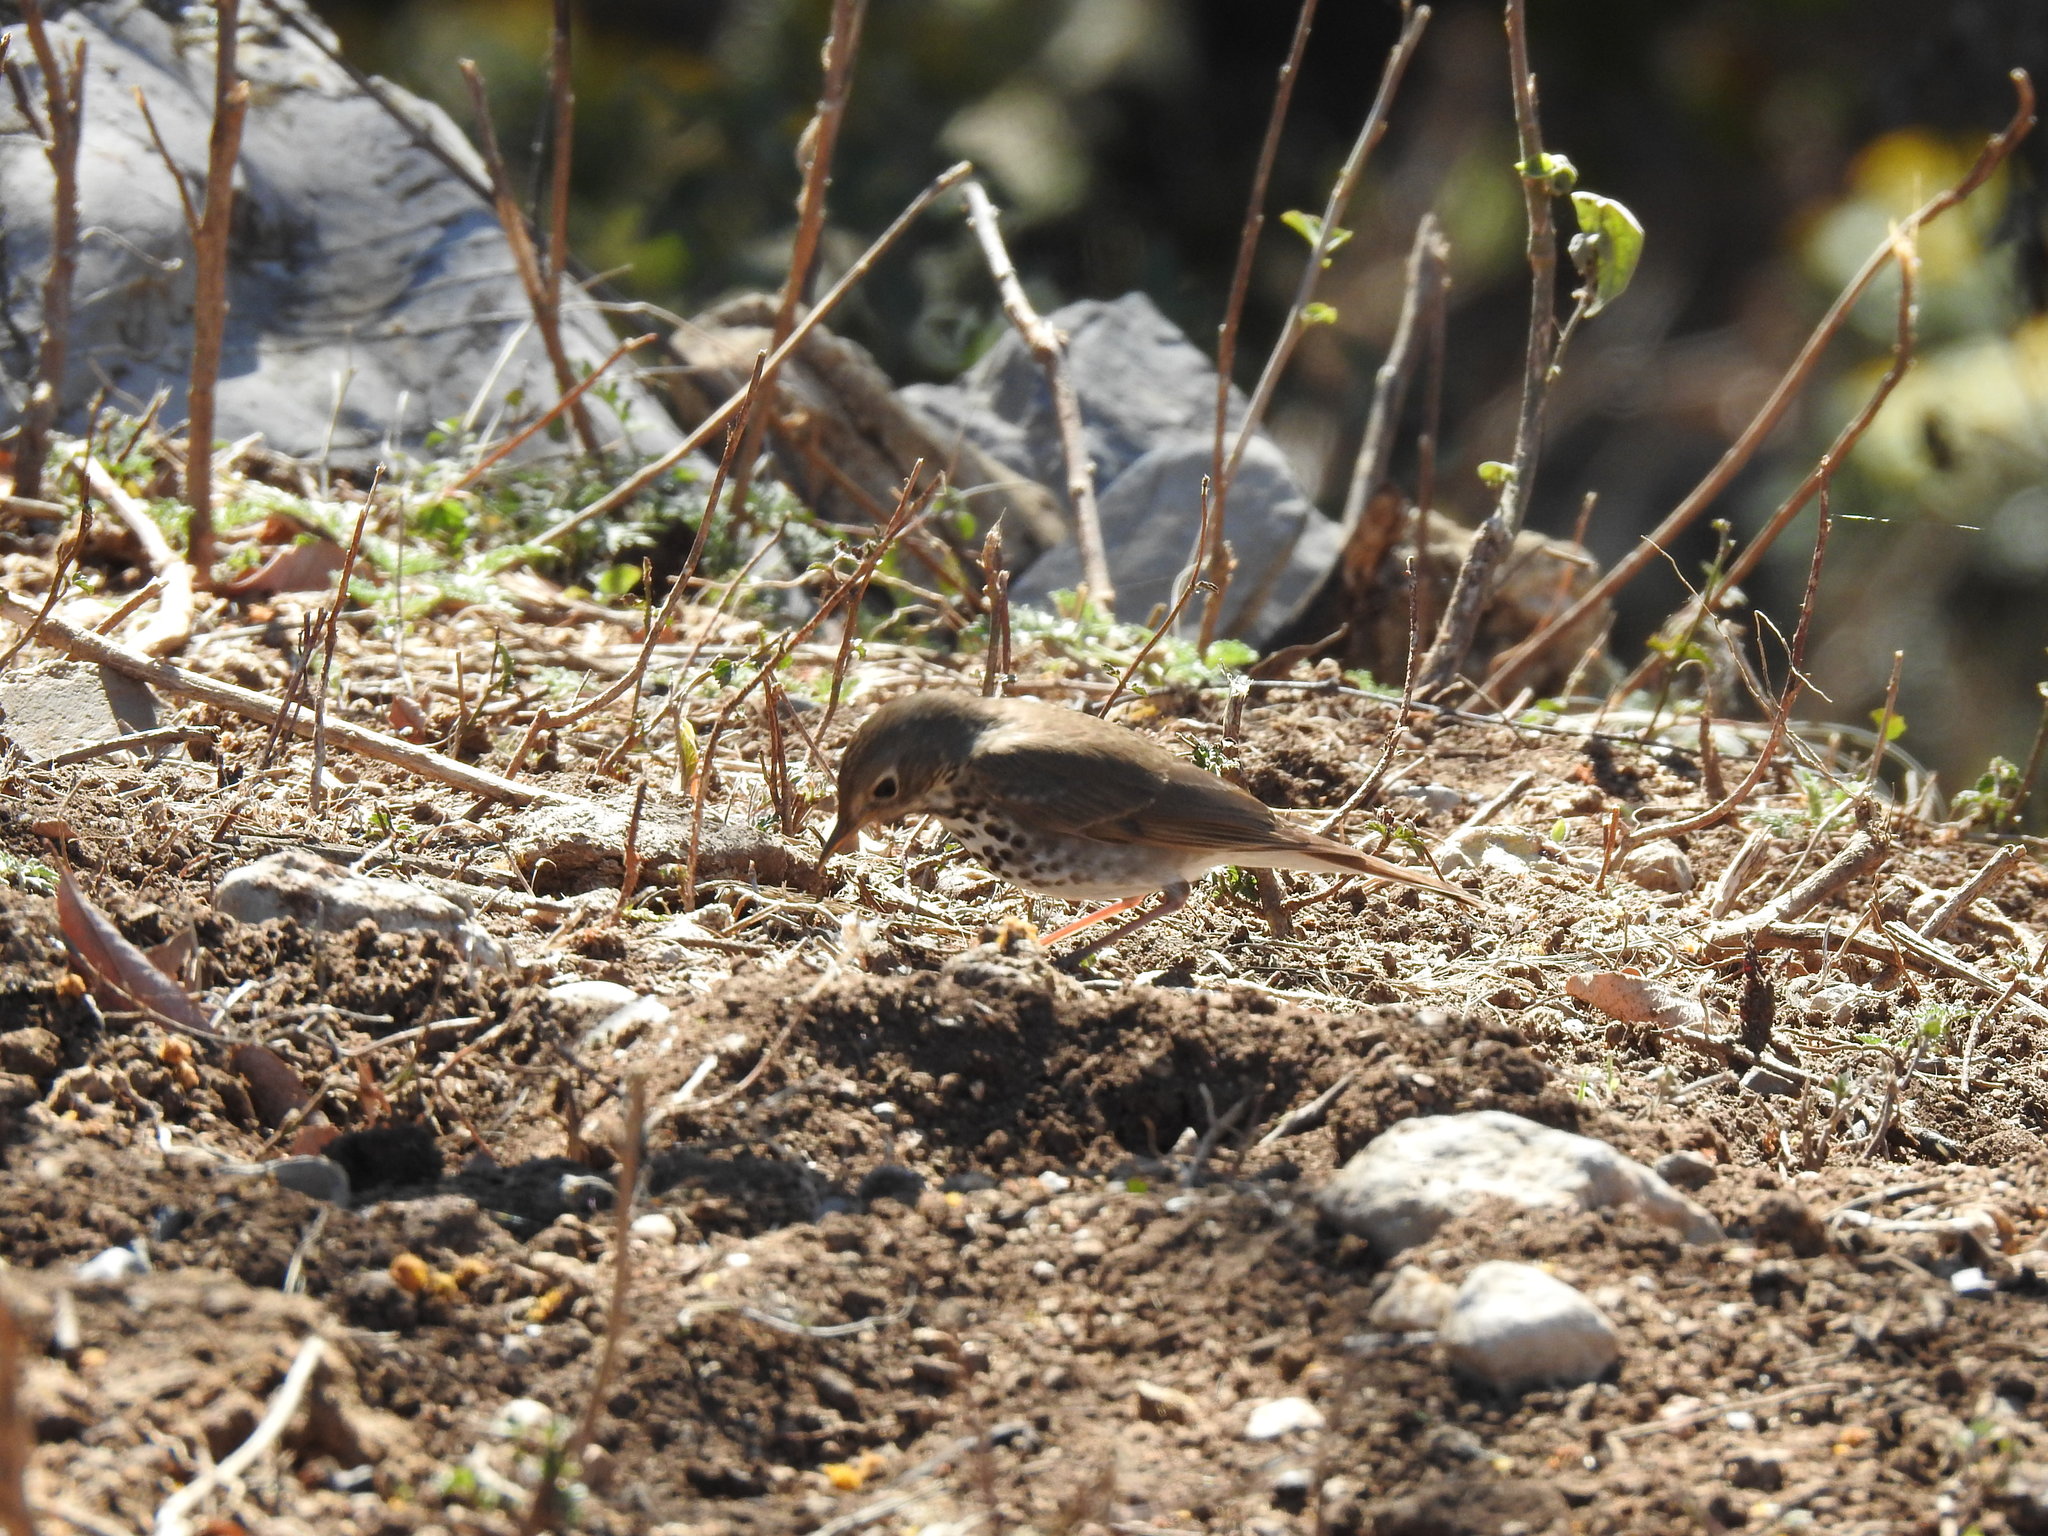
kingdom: Animalia
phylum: Chordata
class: Aves
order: Passeriformes
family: Turdidae
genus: Catharus
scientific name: Catharus guttatus
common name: Hermit thrush
